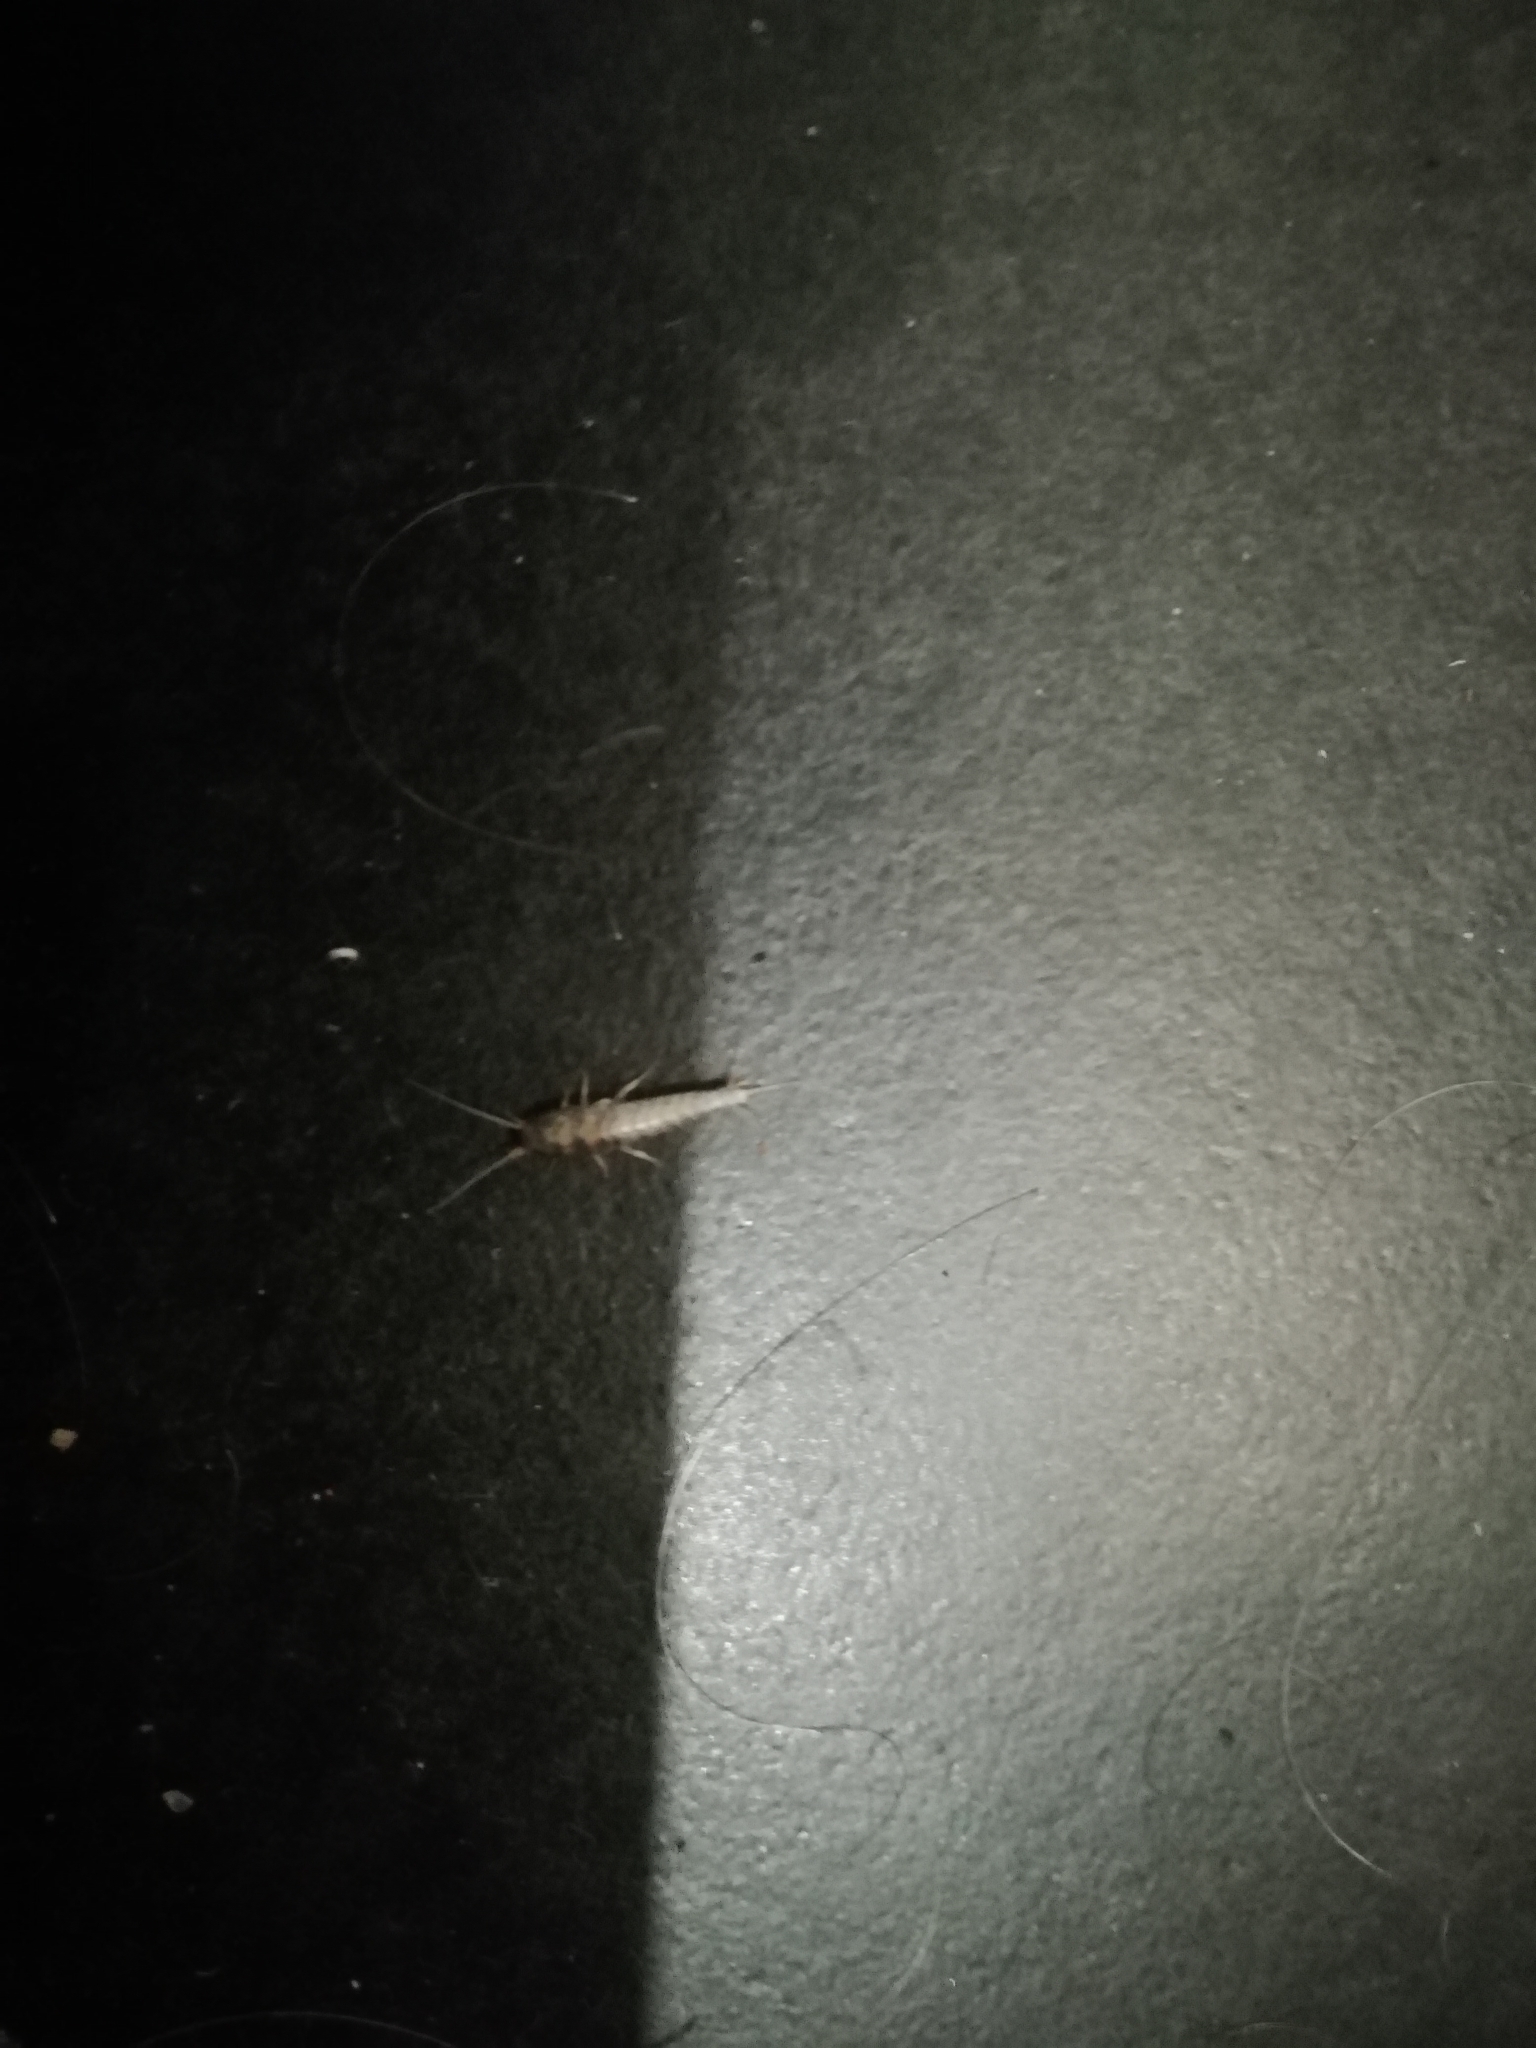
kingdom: Animalia
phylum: Arthropoda
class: Insecta
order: Zygentoma
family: Lepismatidae
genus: Lepisma
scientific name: Lepisma saccharinum
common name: Silverfish
